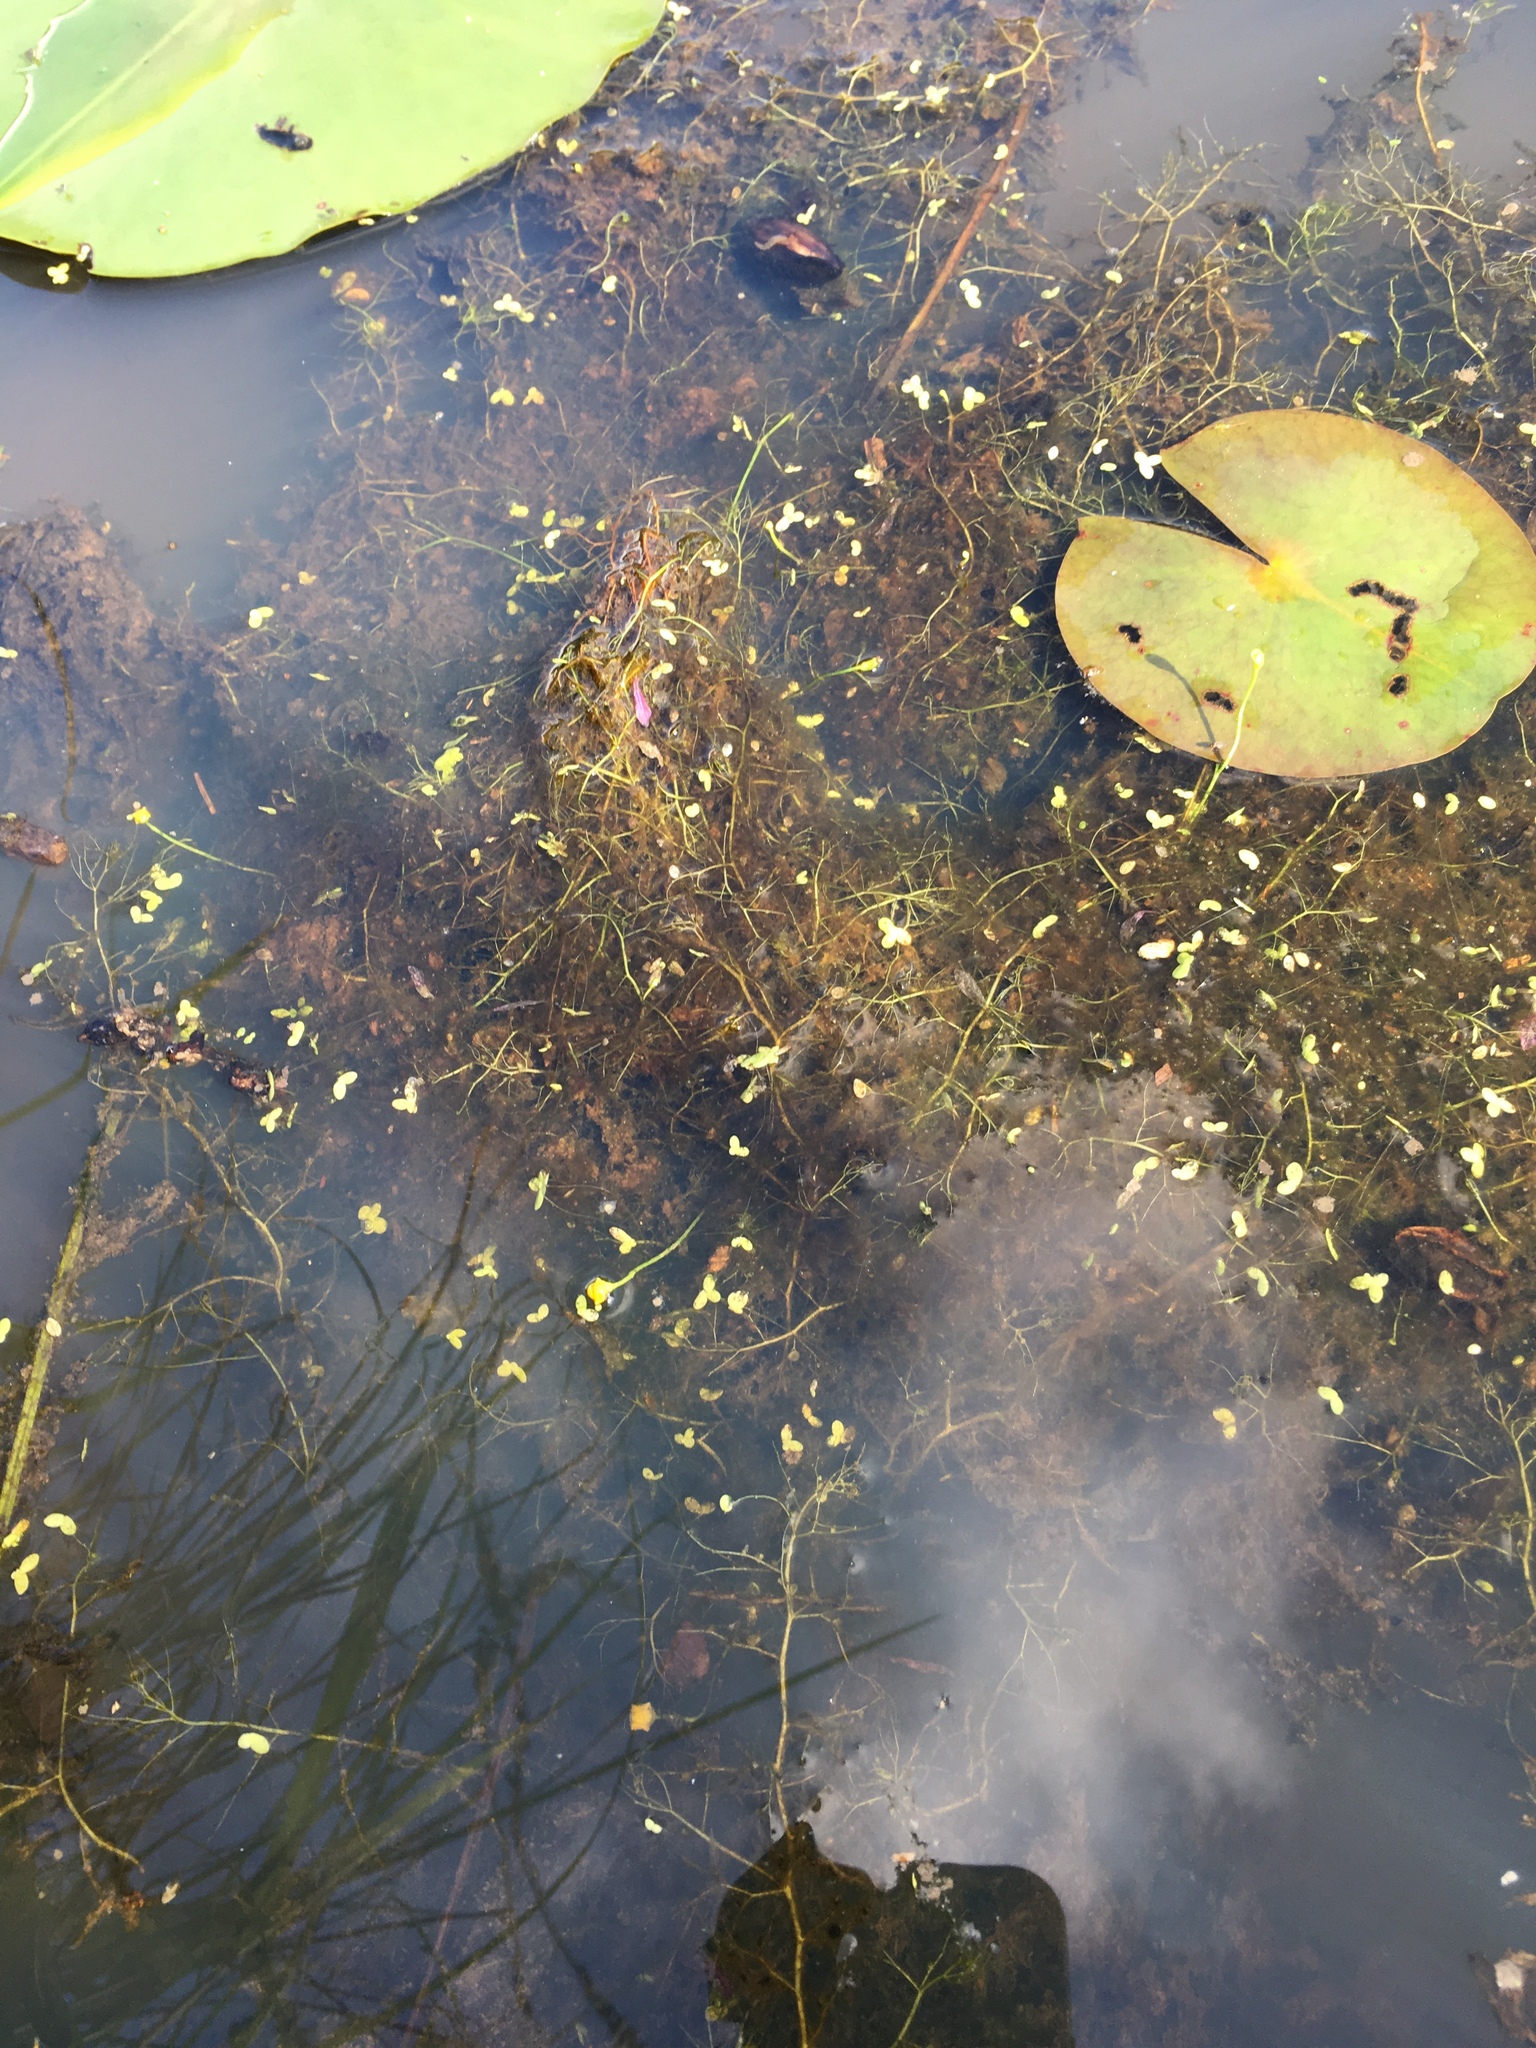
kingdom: Plantae
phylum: Tracheophyta
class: Magnoliopsida
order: Lamiales
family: Lentibulariaceae
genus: Utricularia
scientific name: Utricularia gibba
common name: Humped bladderwort
